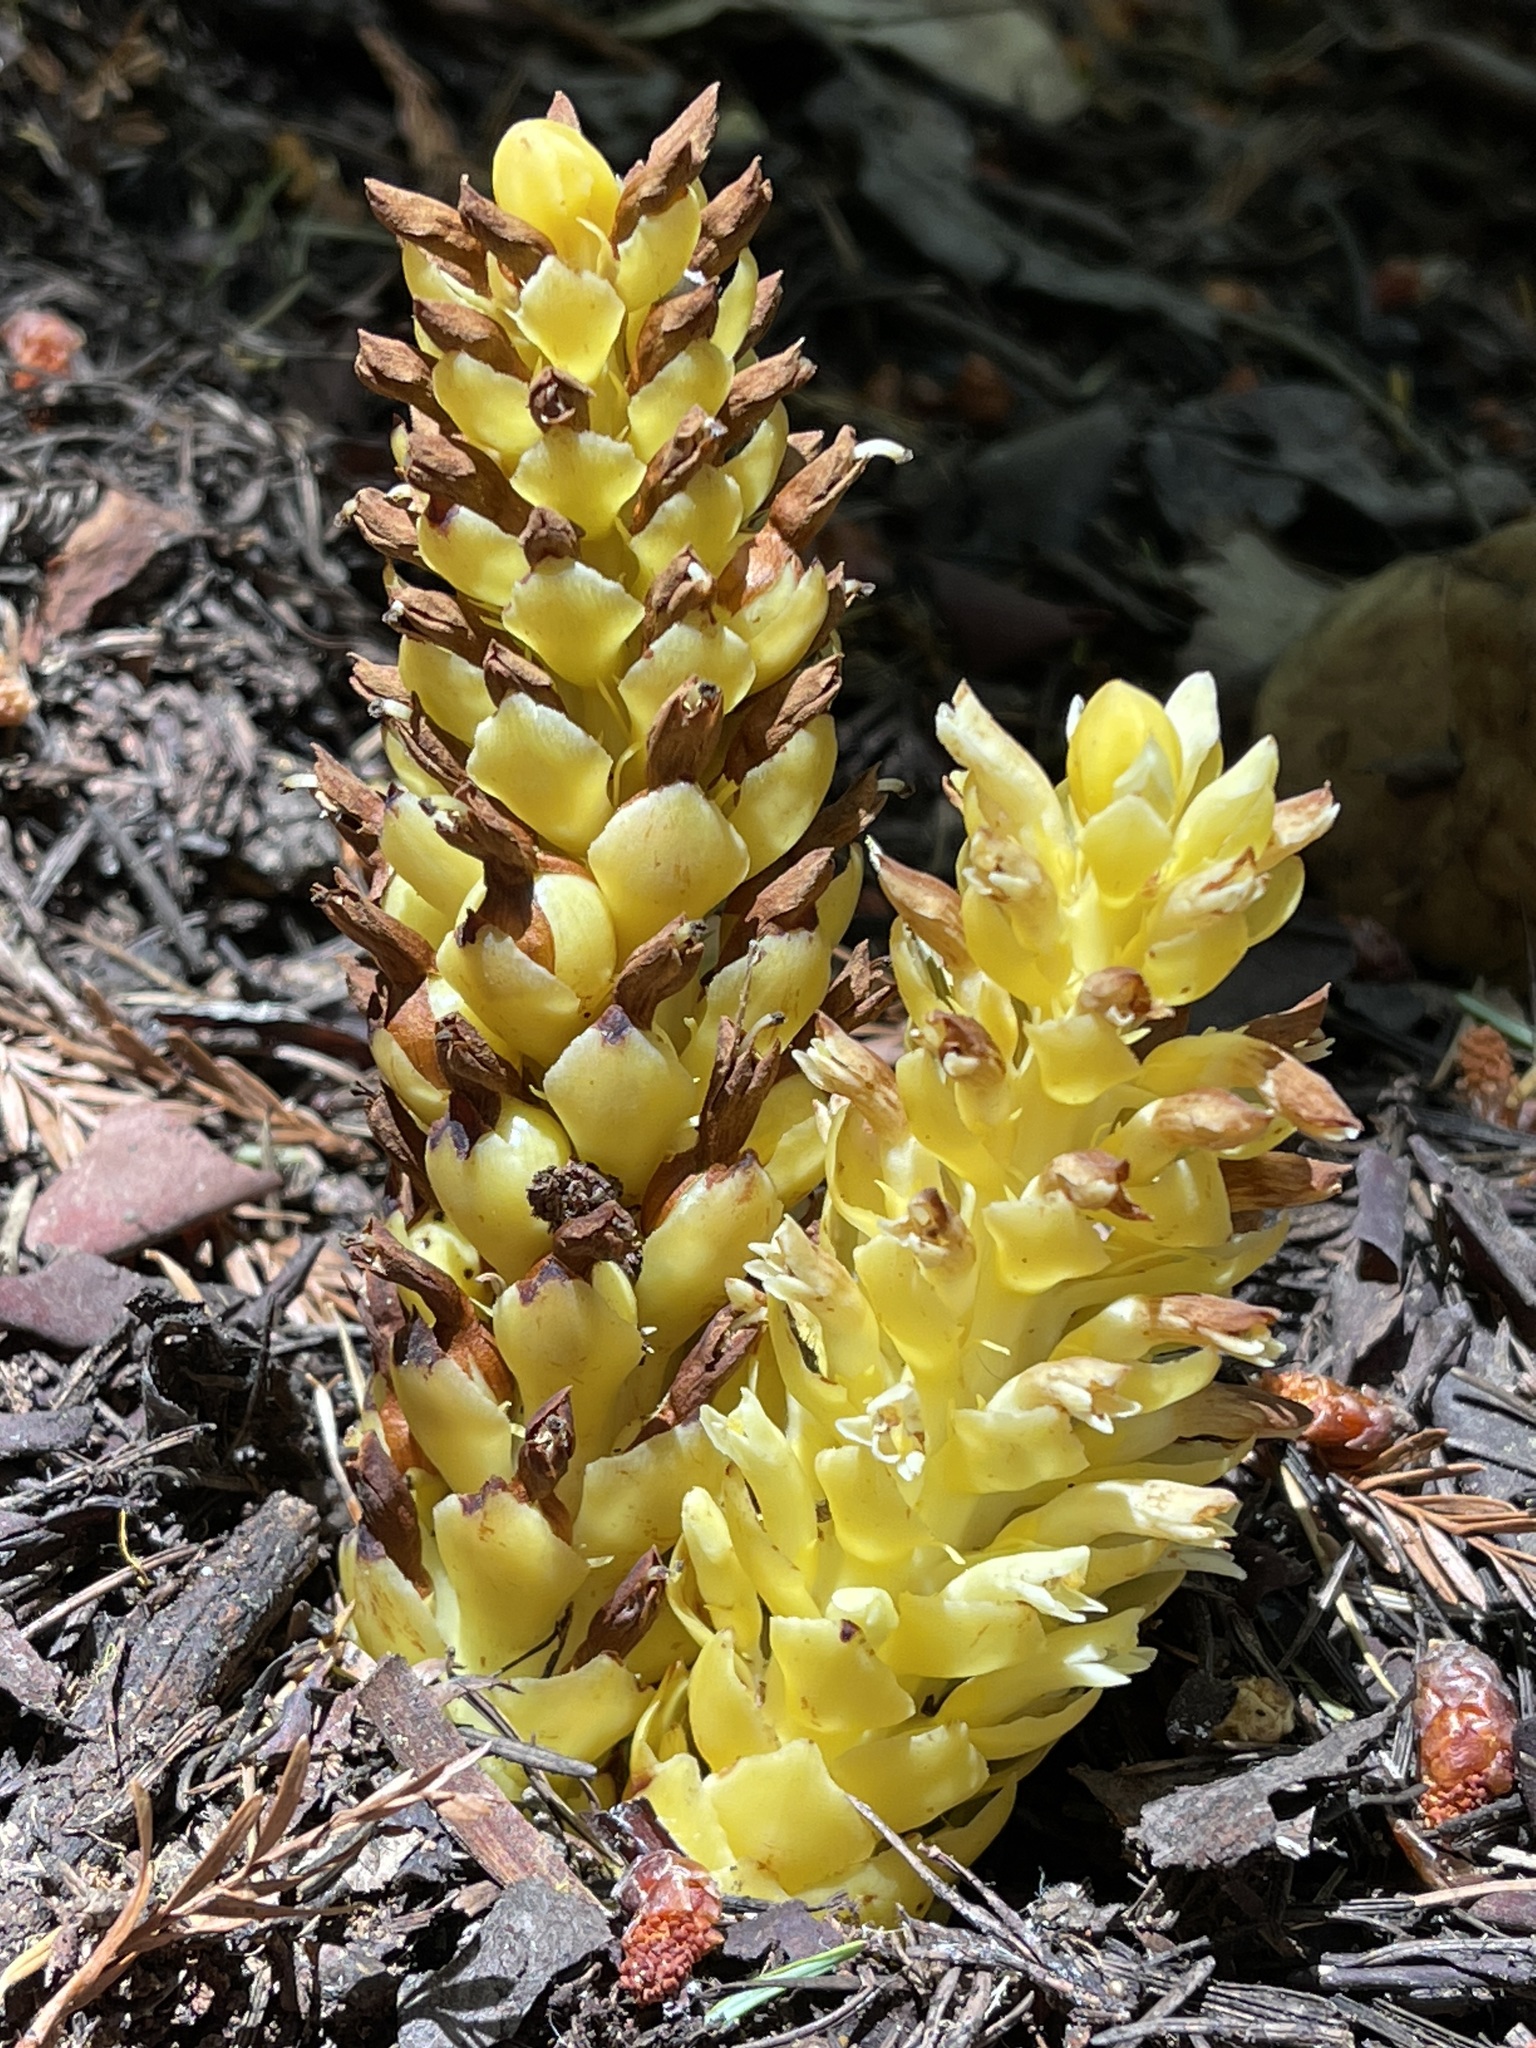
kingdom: Plantae
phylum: Tracheophyta
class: Magnoliopsida
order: Lamiales
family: Orobanchaceae
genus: Kopsiopsis
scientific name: Kopsiopsis hookeri
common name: Hooker's groundcone
